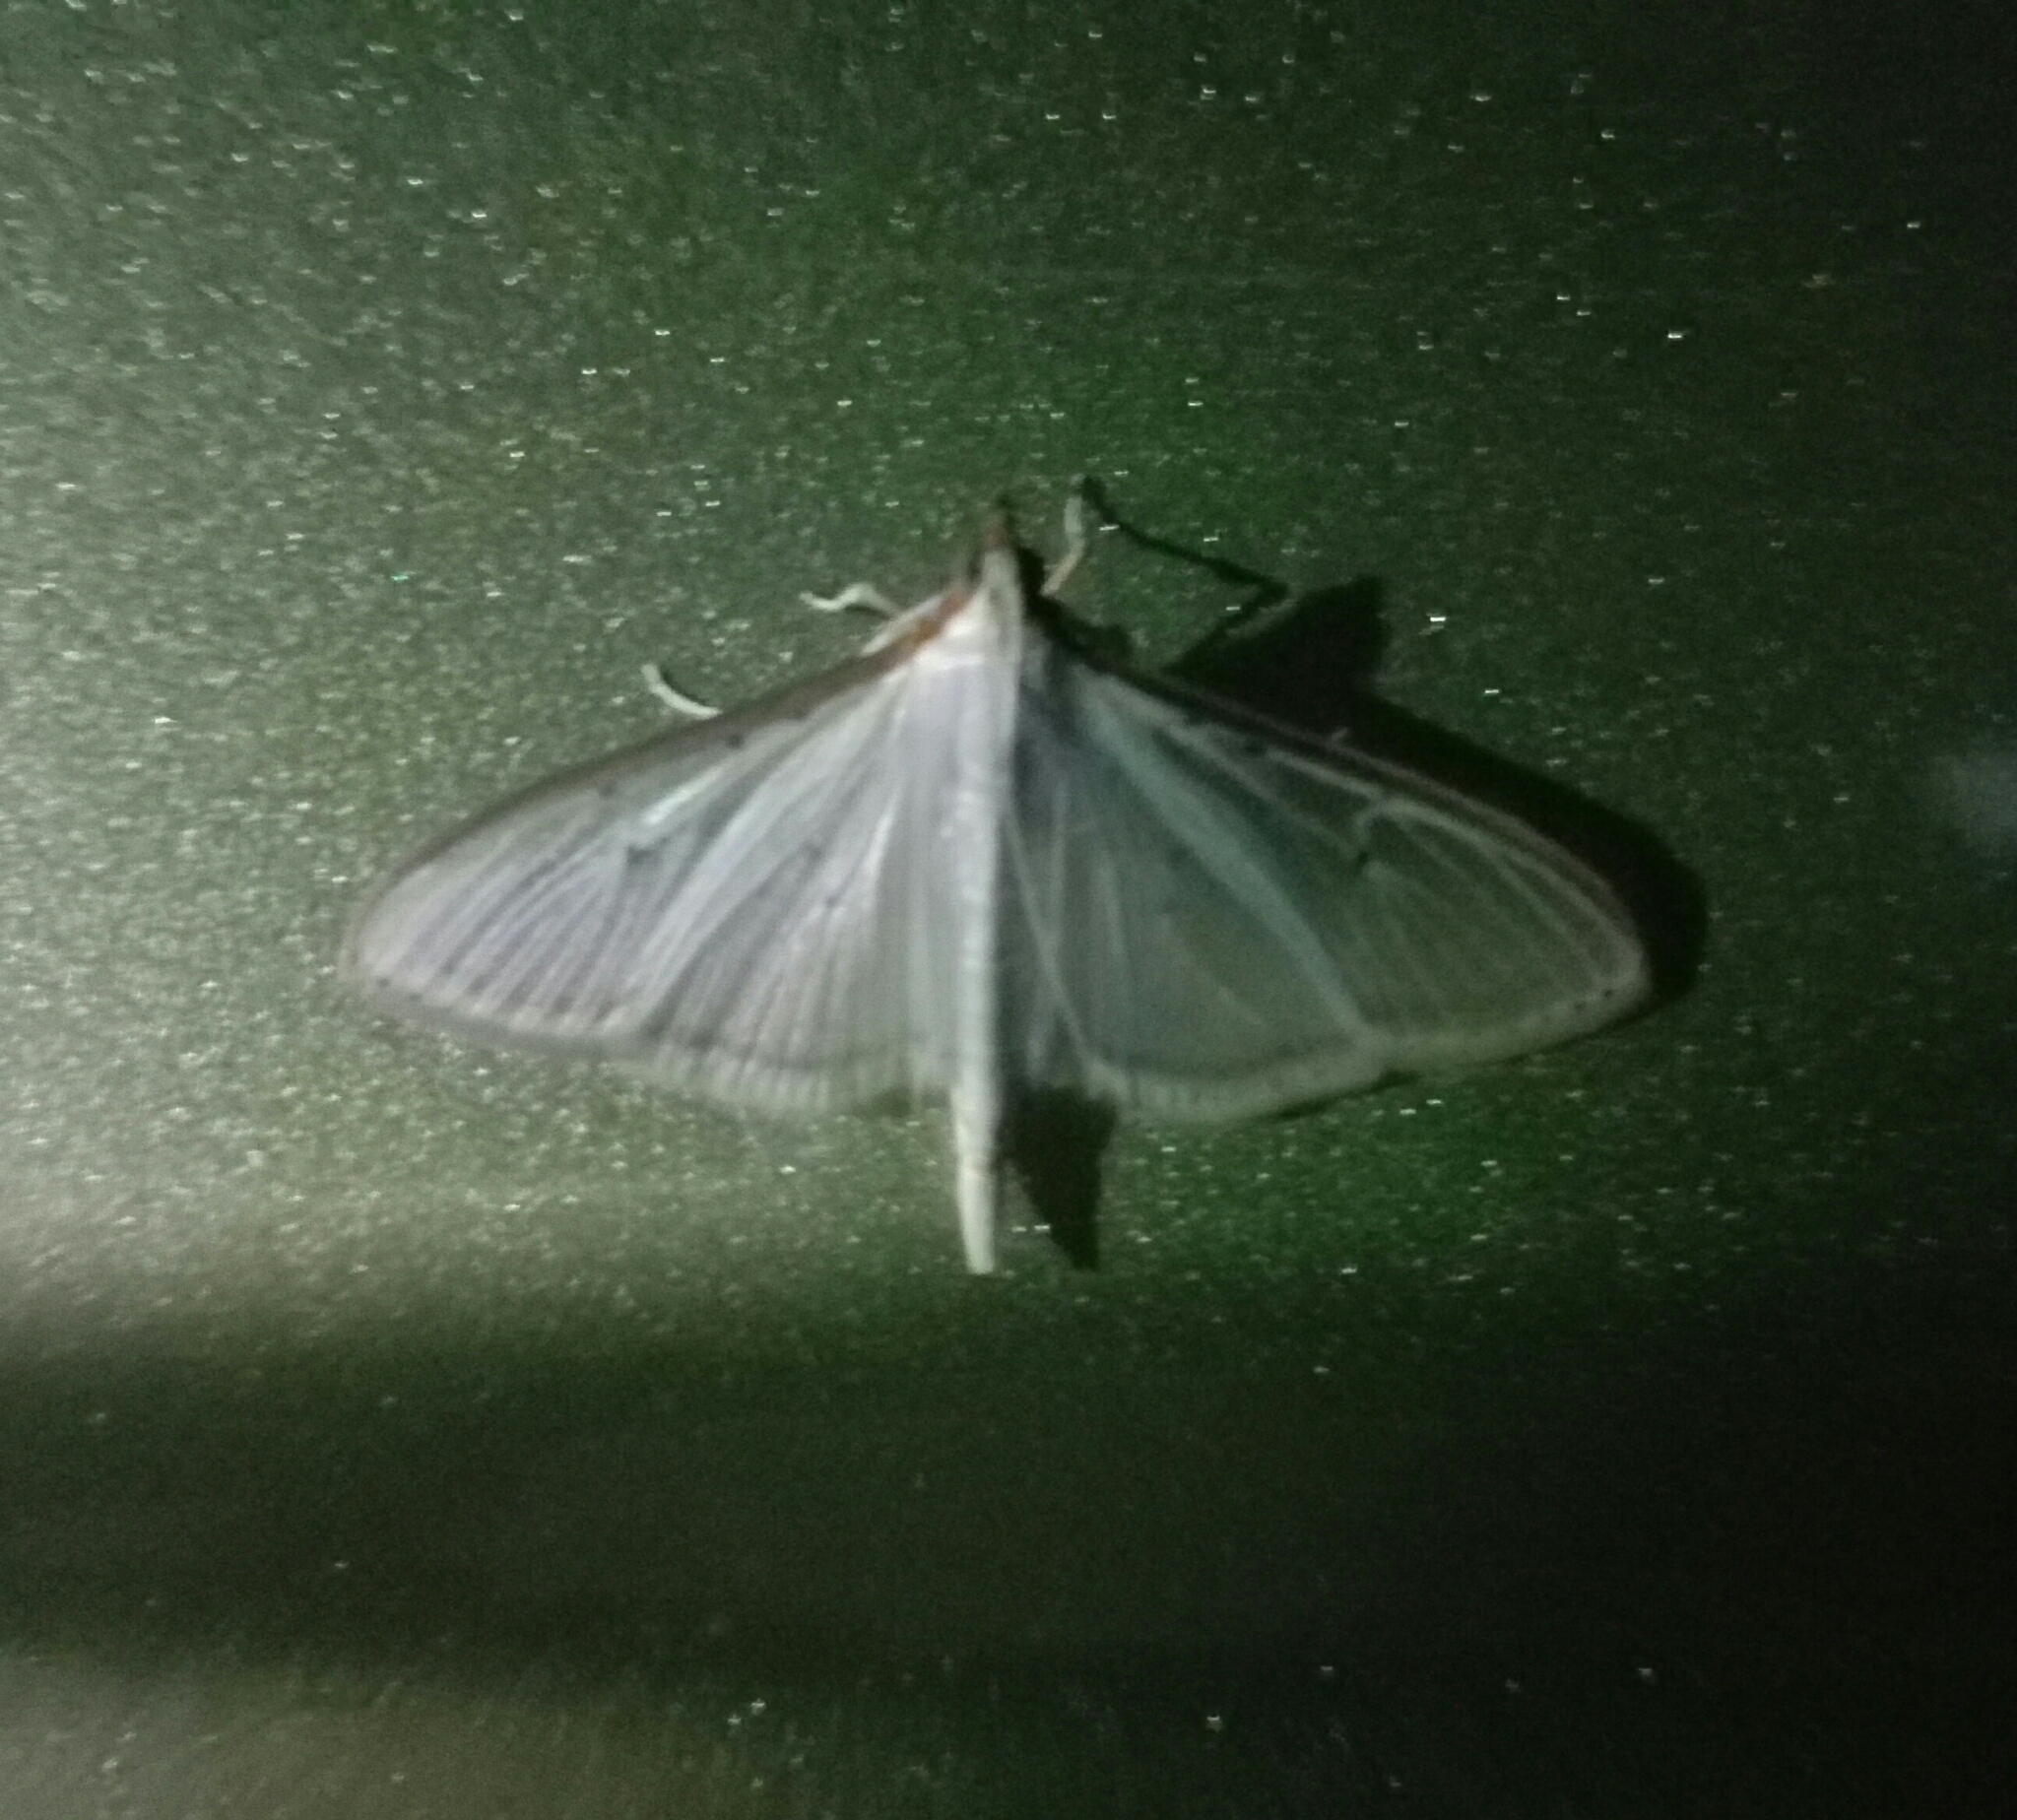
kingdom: Animalia
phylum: Arthropoda
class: Insecta
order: Lepidoptera
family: Crambidae
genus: Palpita
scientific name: Palpita quadristigmalis
